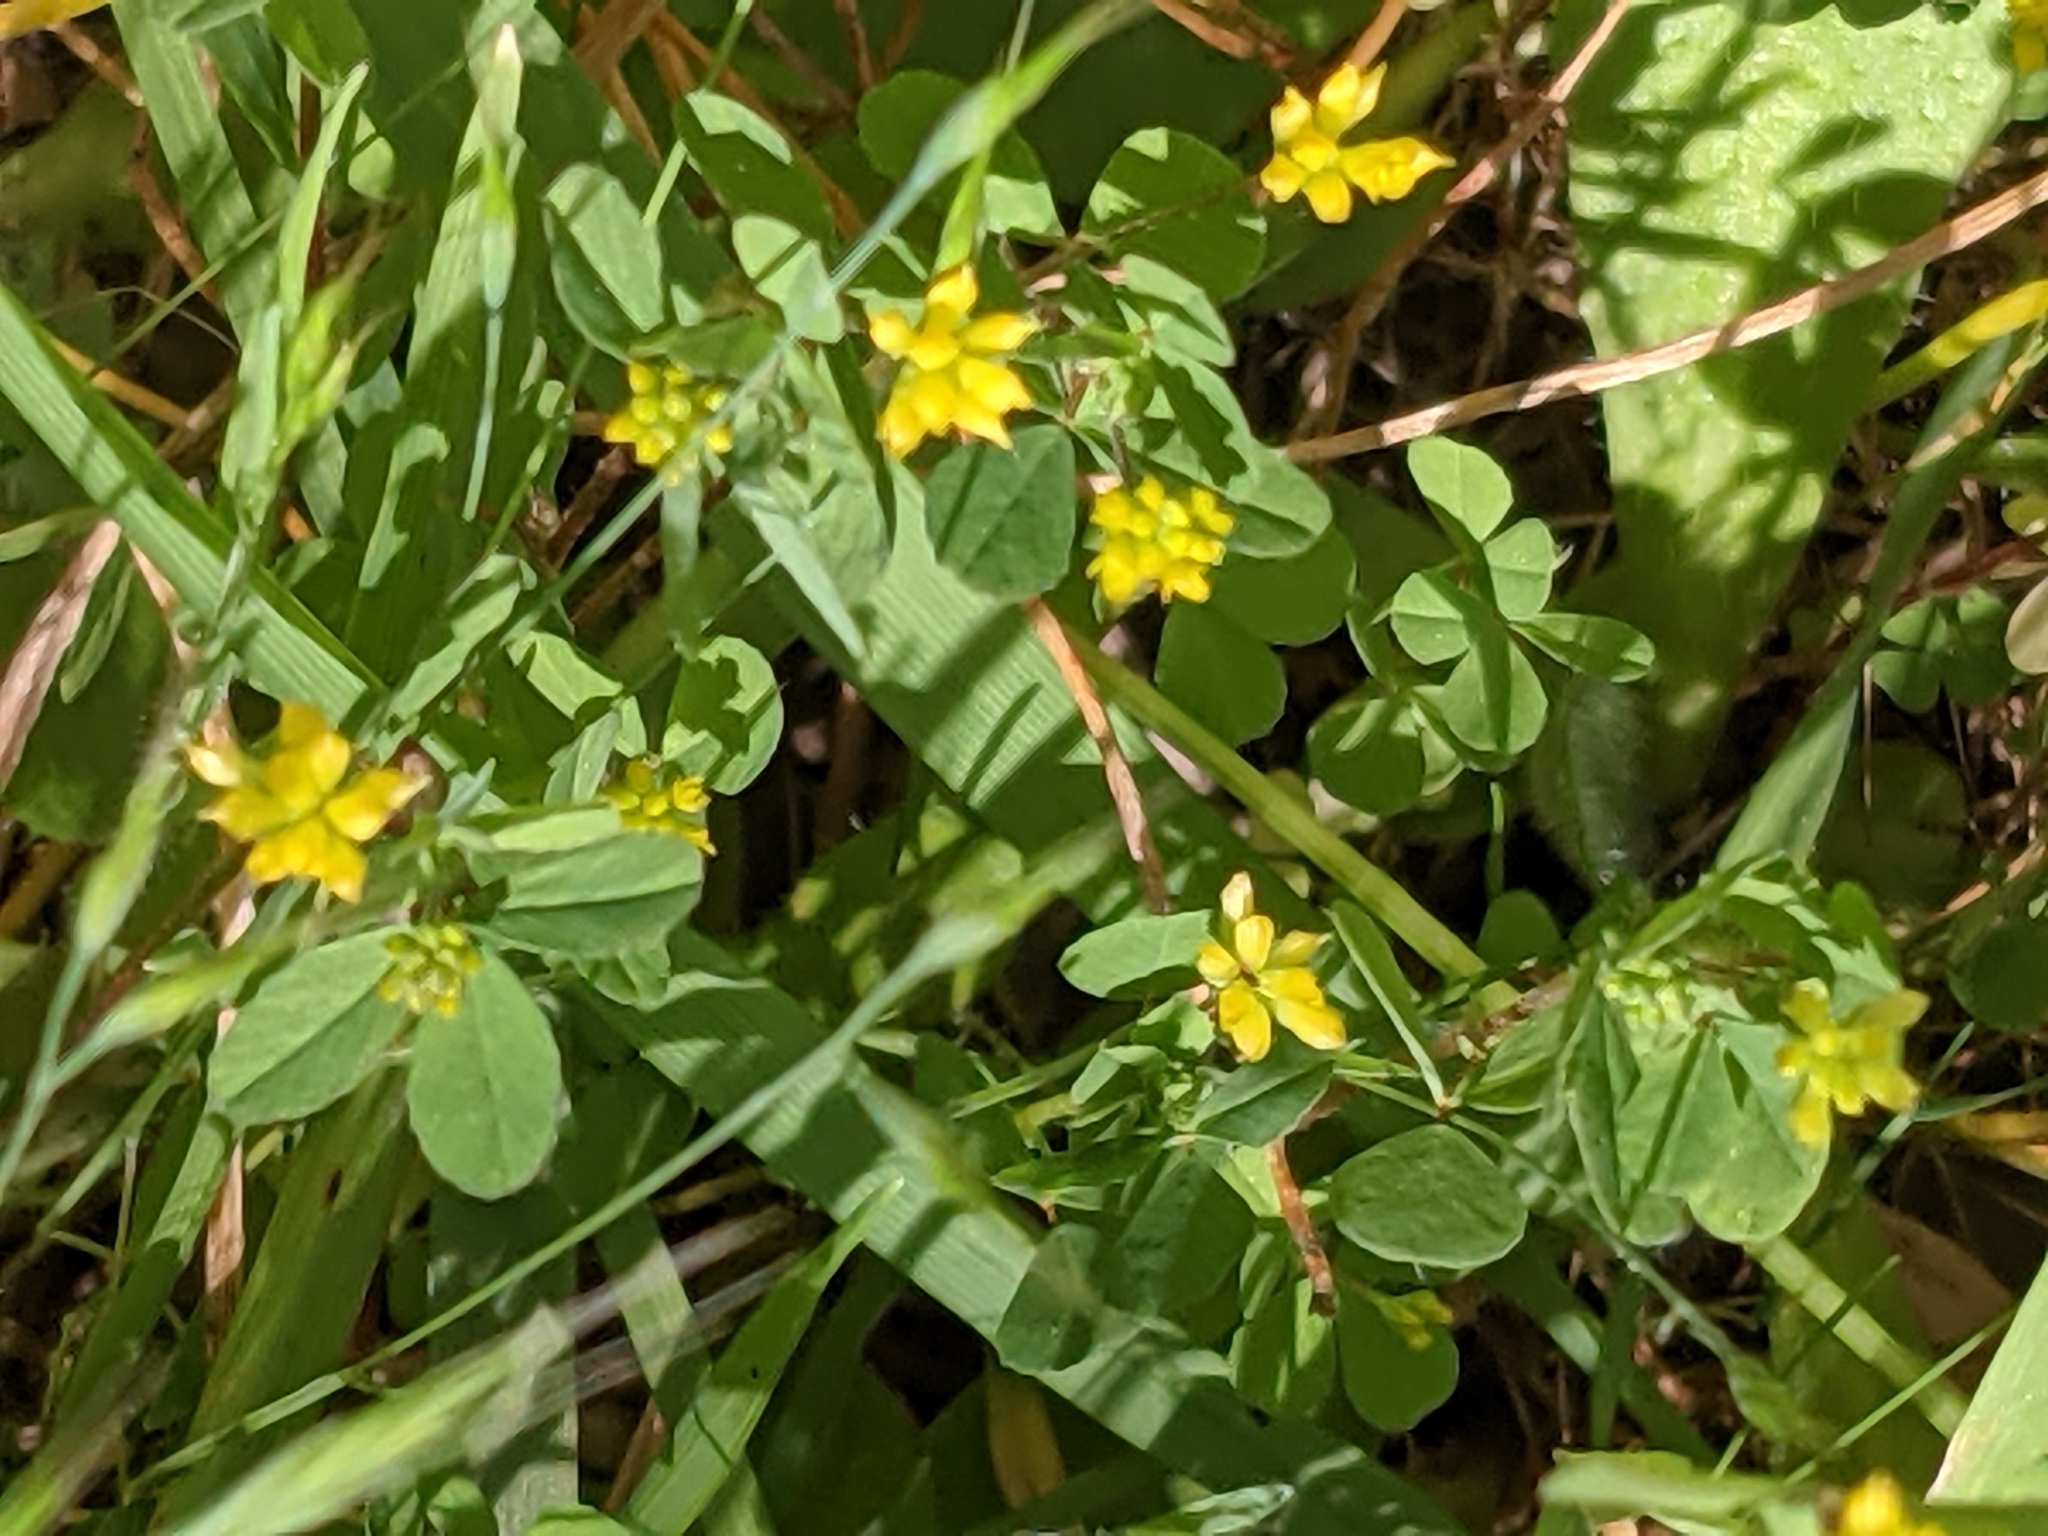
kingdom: Plantae
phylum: Tracheophyta
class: Magnoliopsida
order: Fabales
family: Fabaceae
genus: Trifolium
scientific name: Trifolium dubium
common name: Suckling clover
